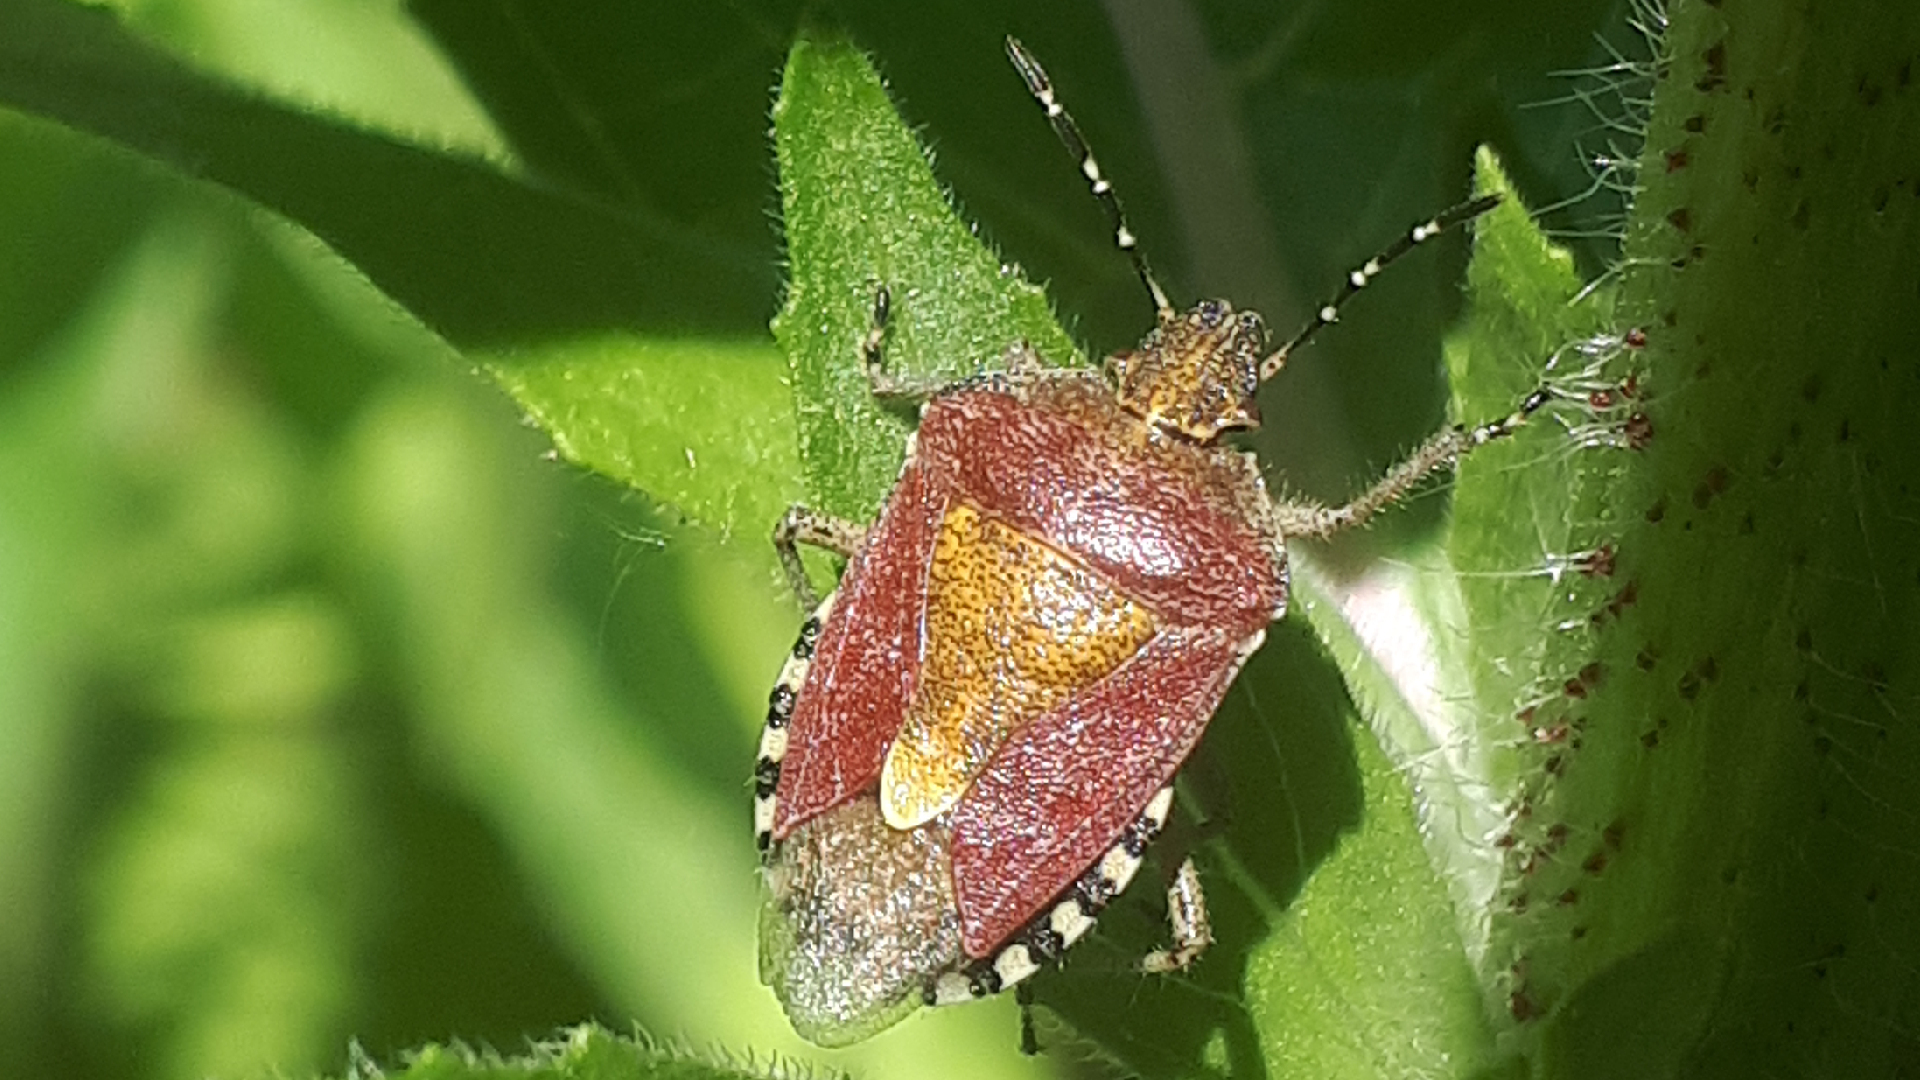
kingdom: Animalia
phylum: Arthropoda
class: Insecta
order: Hemiptera
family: Pentatomidae
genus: Dolycoris
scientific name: Dolycoris baccarum
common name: Sloe bug
